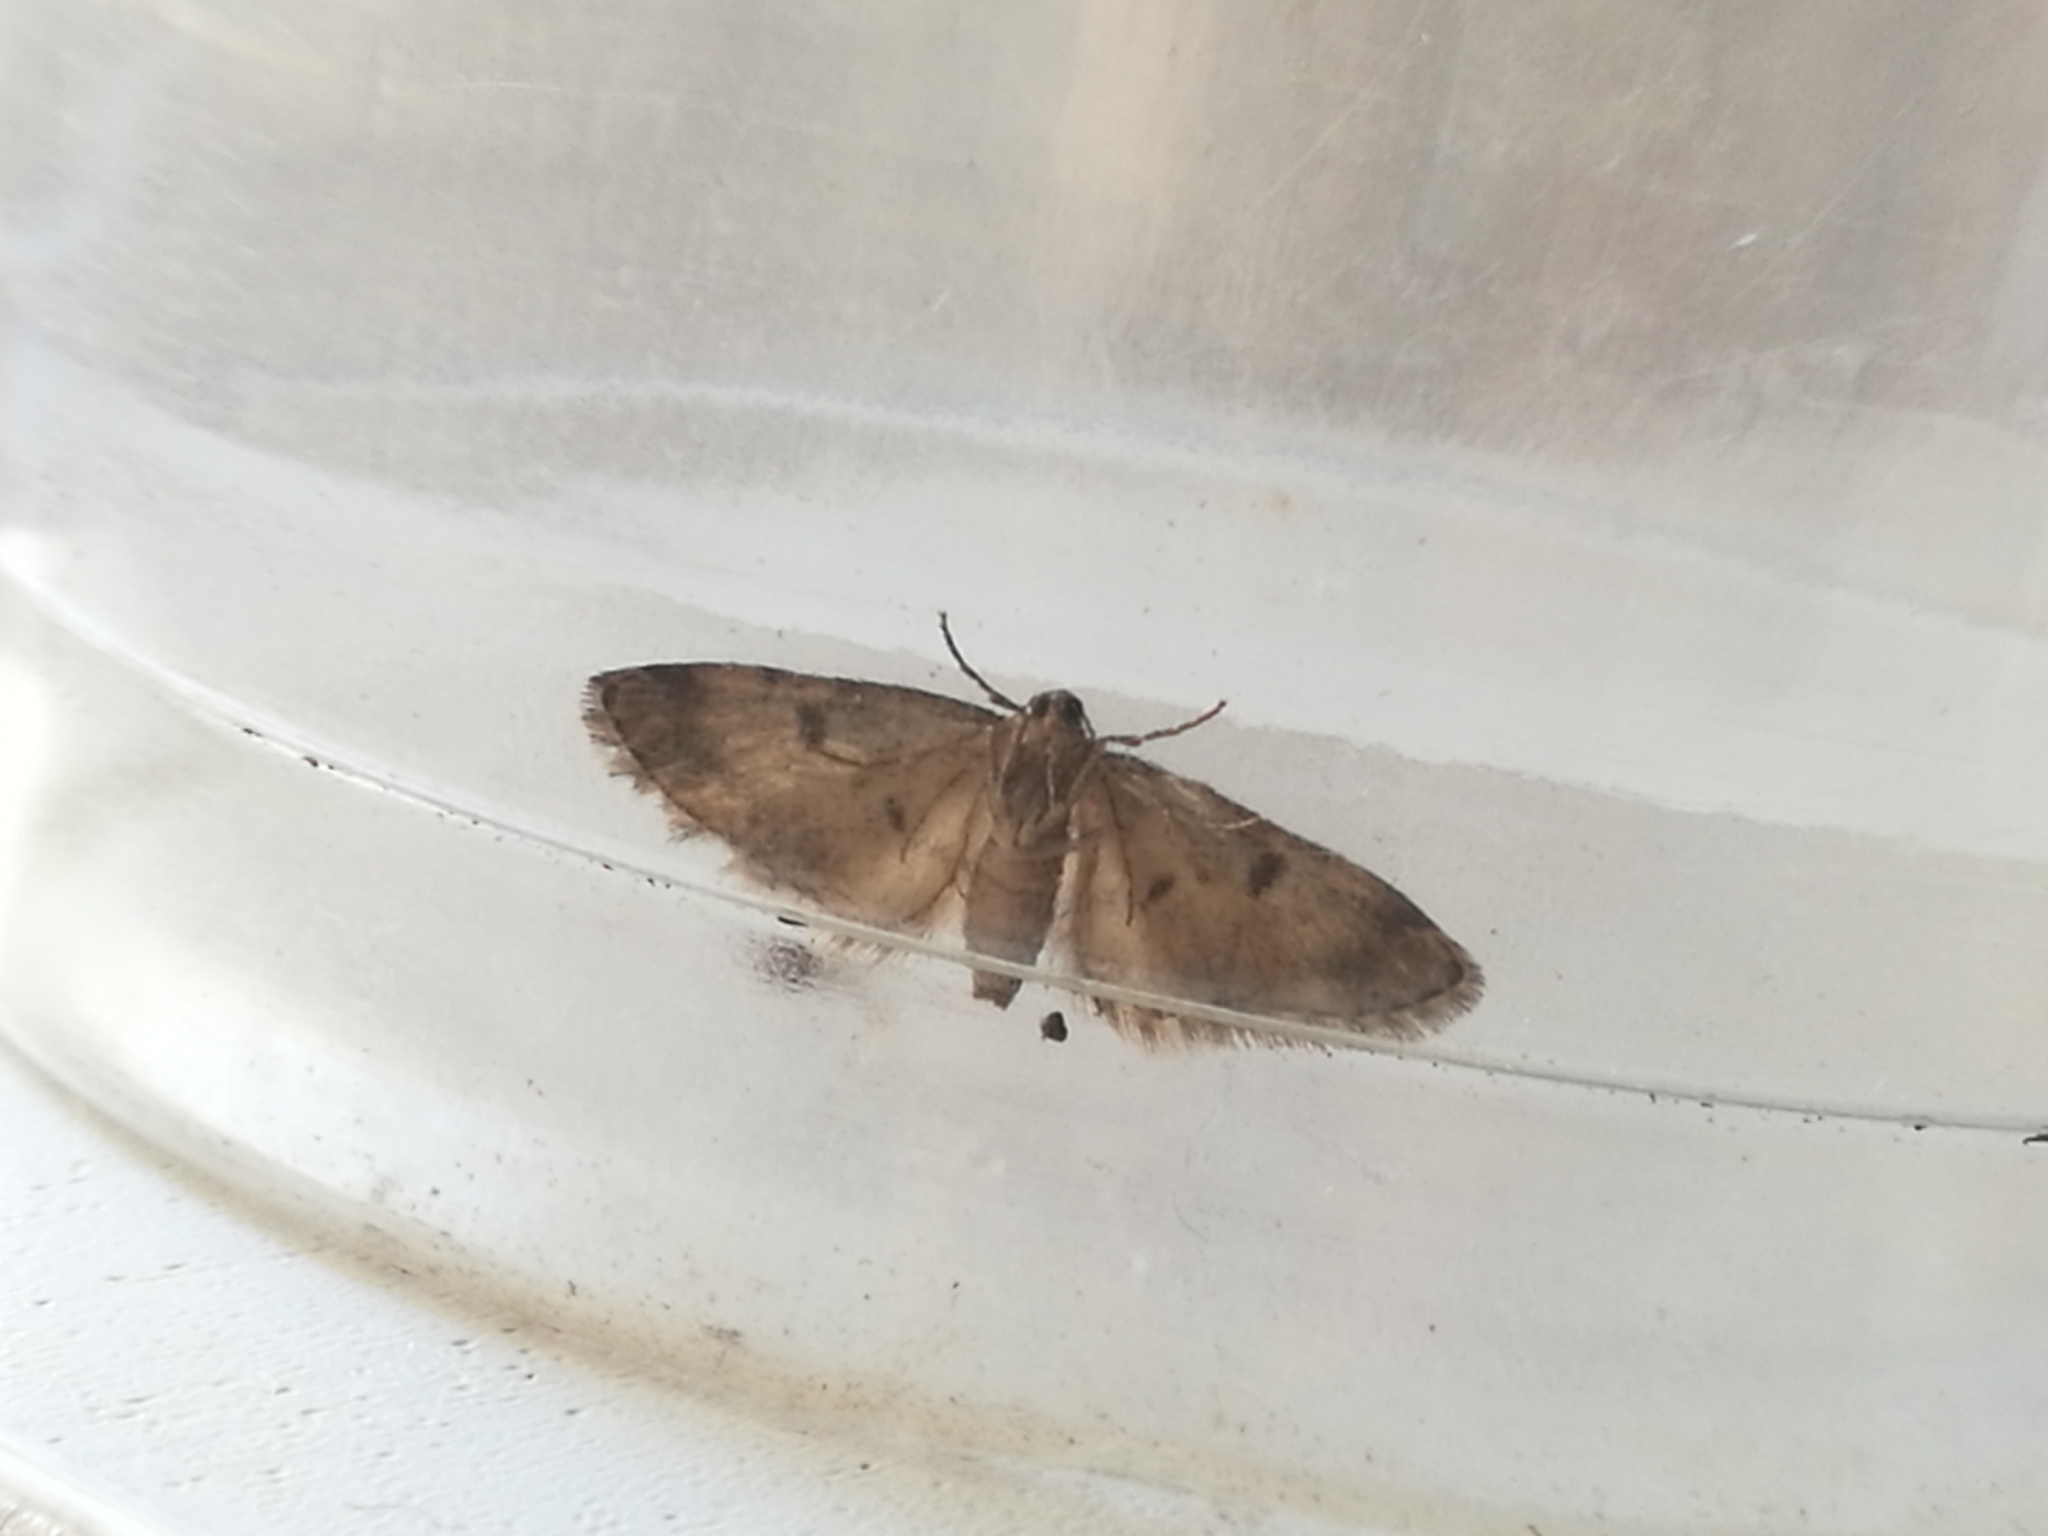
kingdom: Animalia
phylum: Arthropoda
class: Insecta
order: Lepidoptera
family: Geometridae
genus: Eupithecia
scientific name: Eupithecia tantillaria
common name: Dwarf pug
